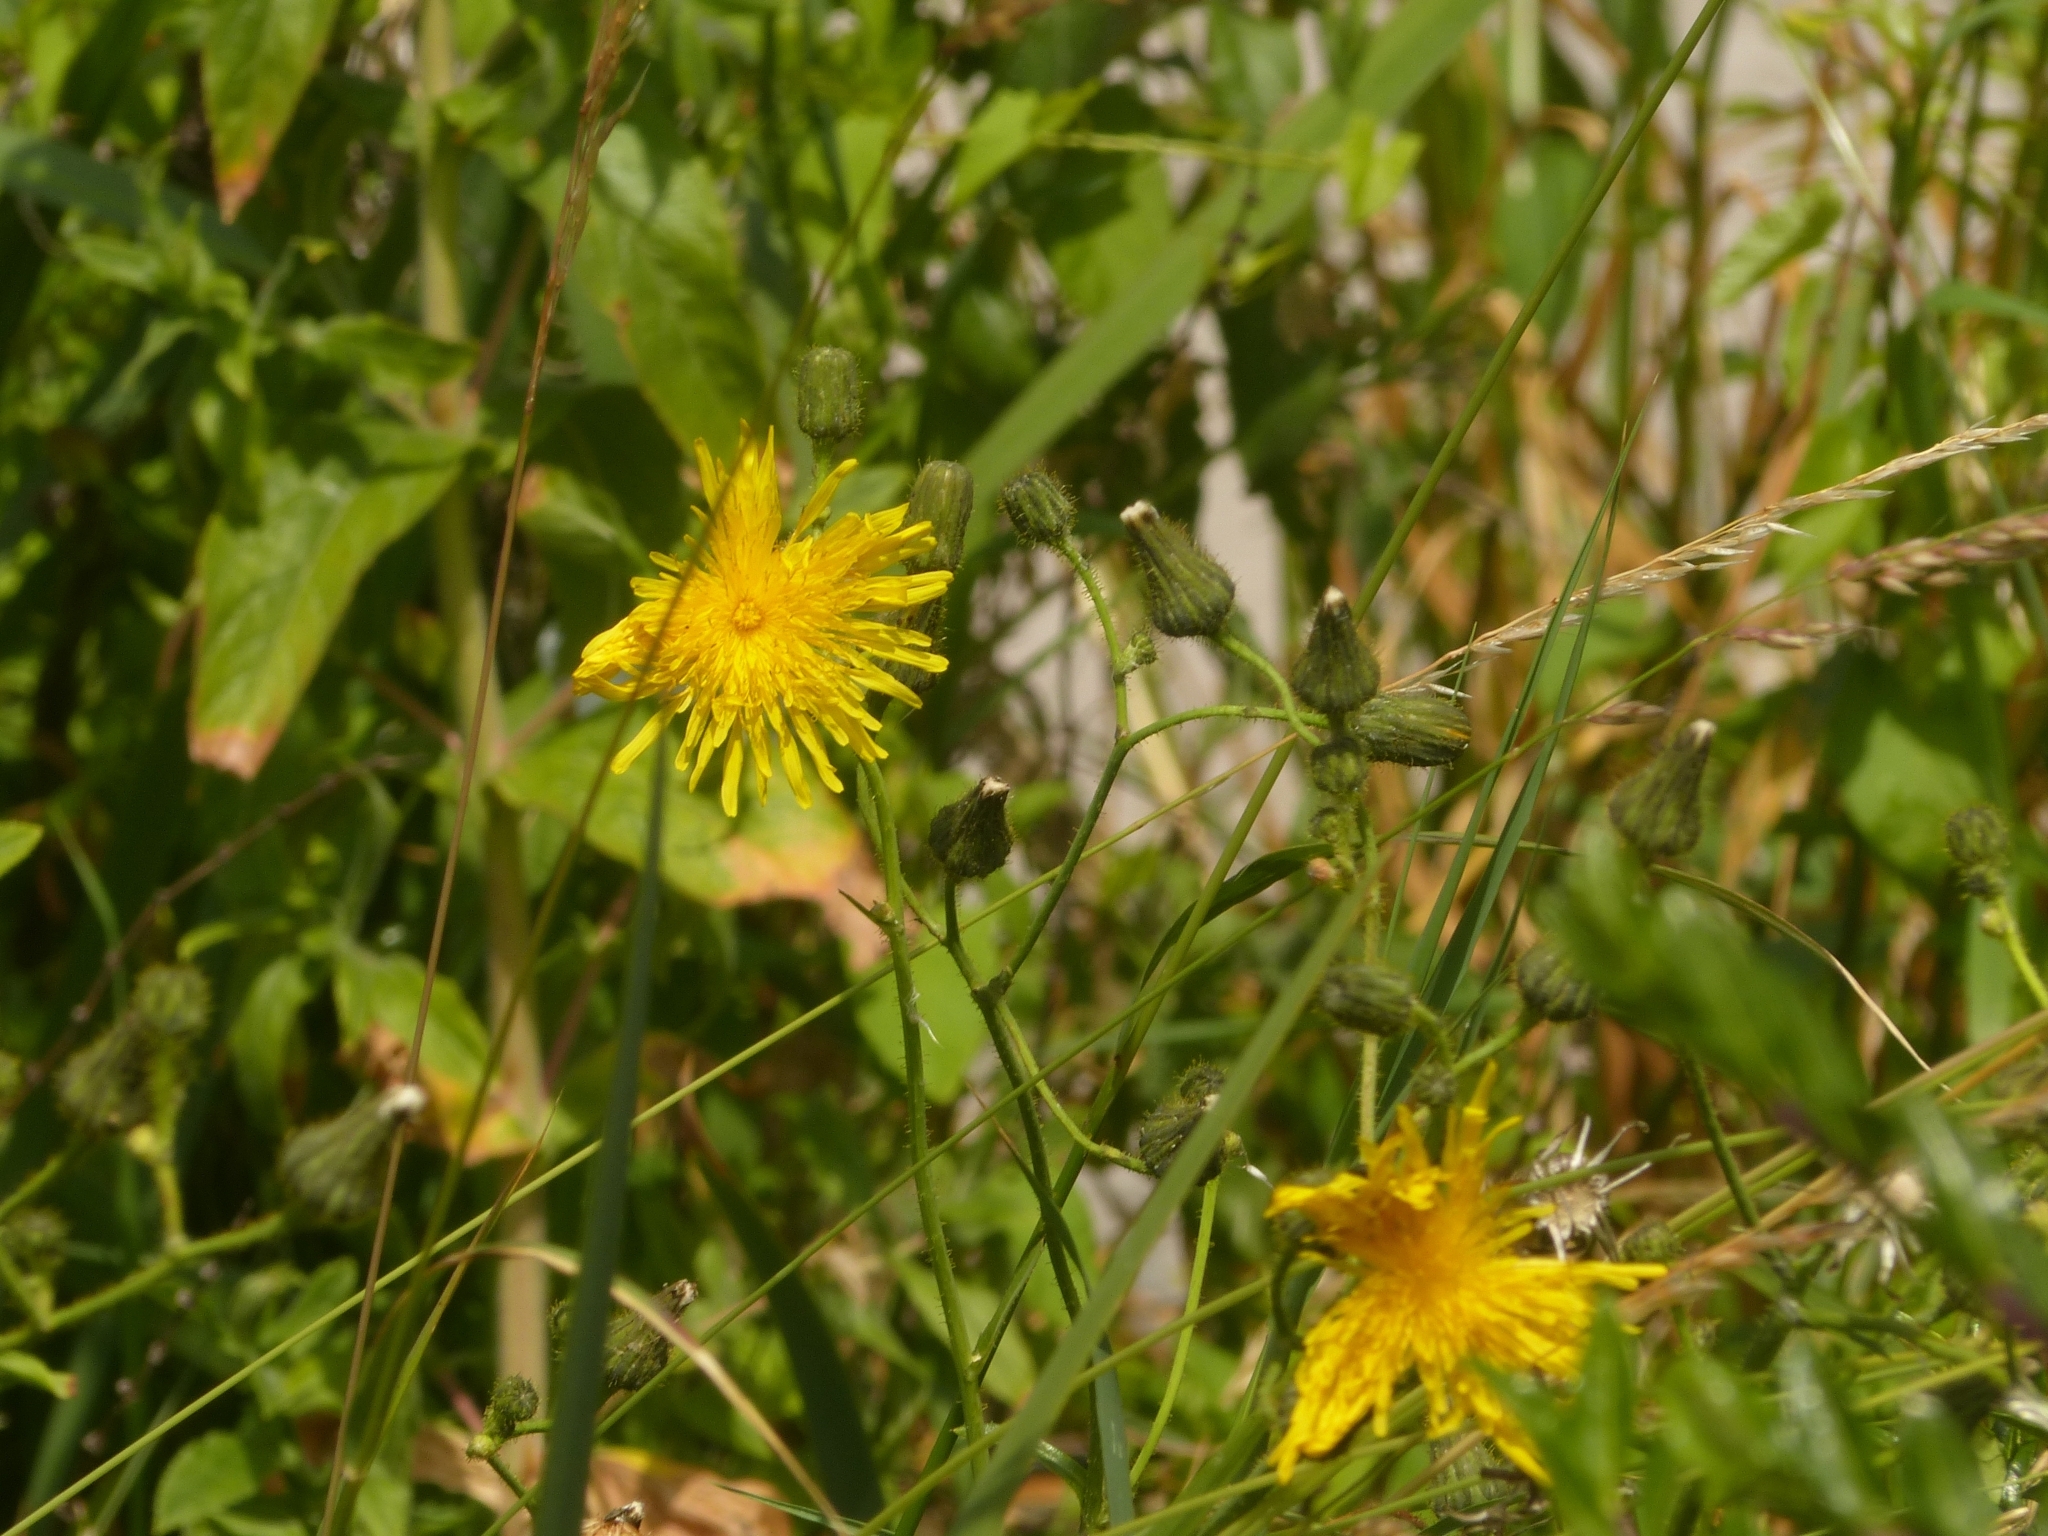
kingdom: Plantae
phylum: Tracheophyta
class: Magnoliopsida
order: Asterales
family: Asteraceae
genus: Sonchus
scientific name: Sonchus arvensis
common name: Perennial sow-thistle
